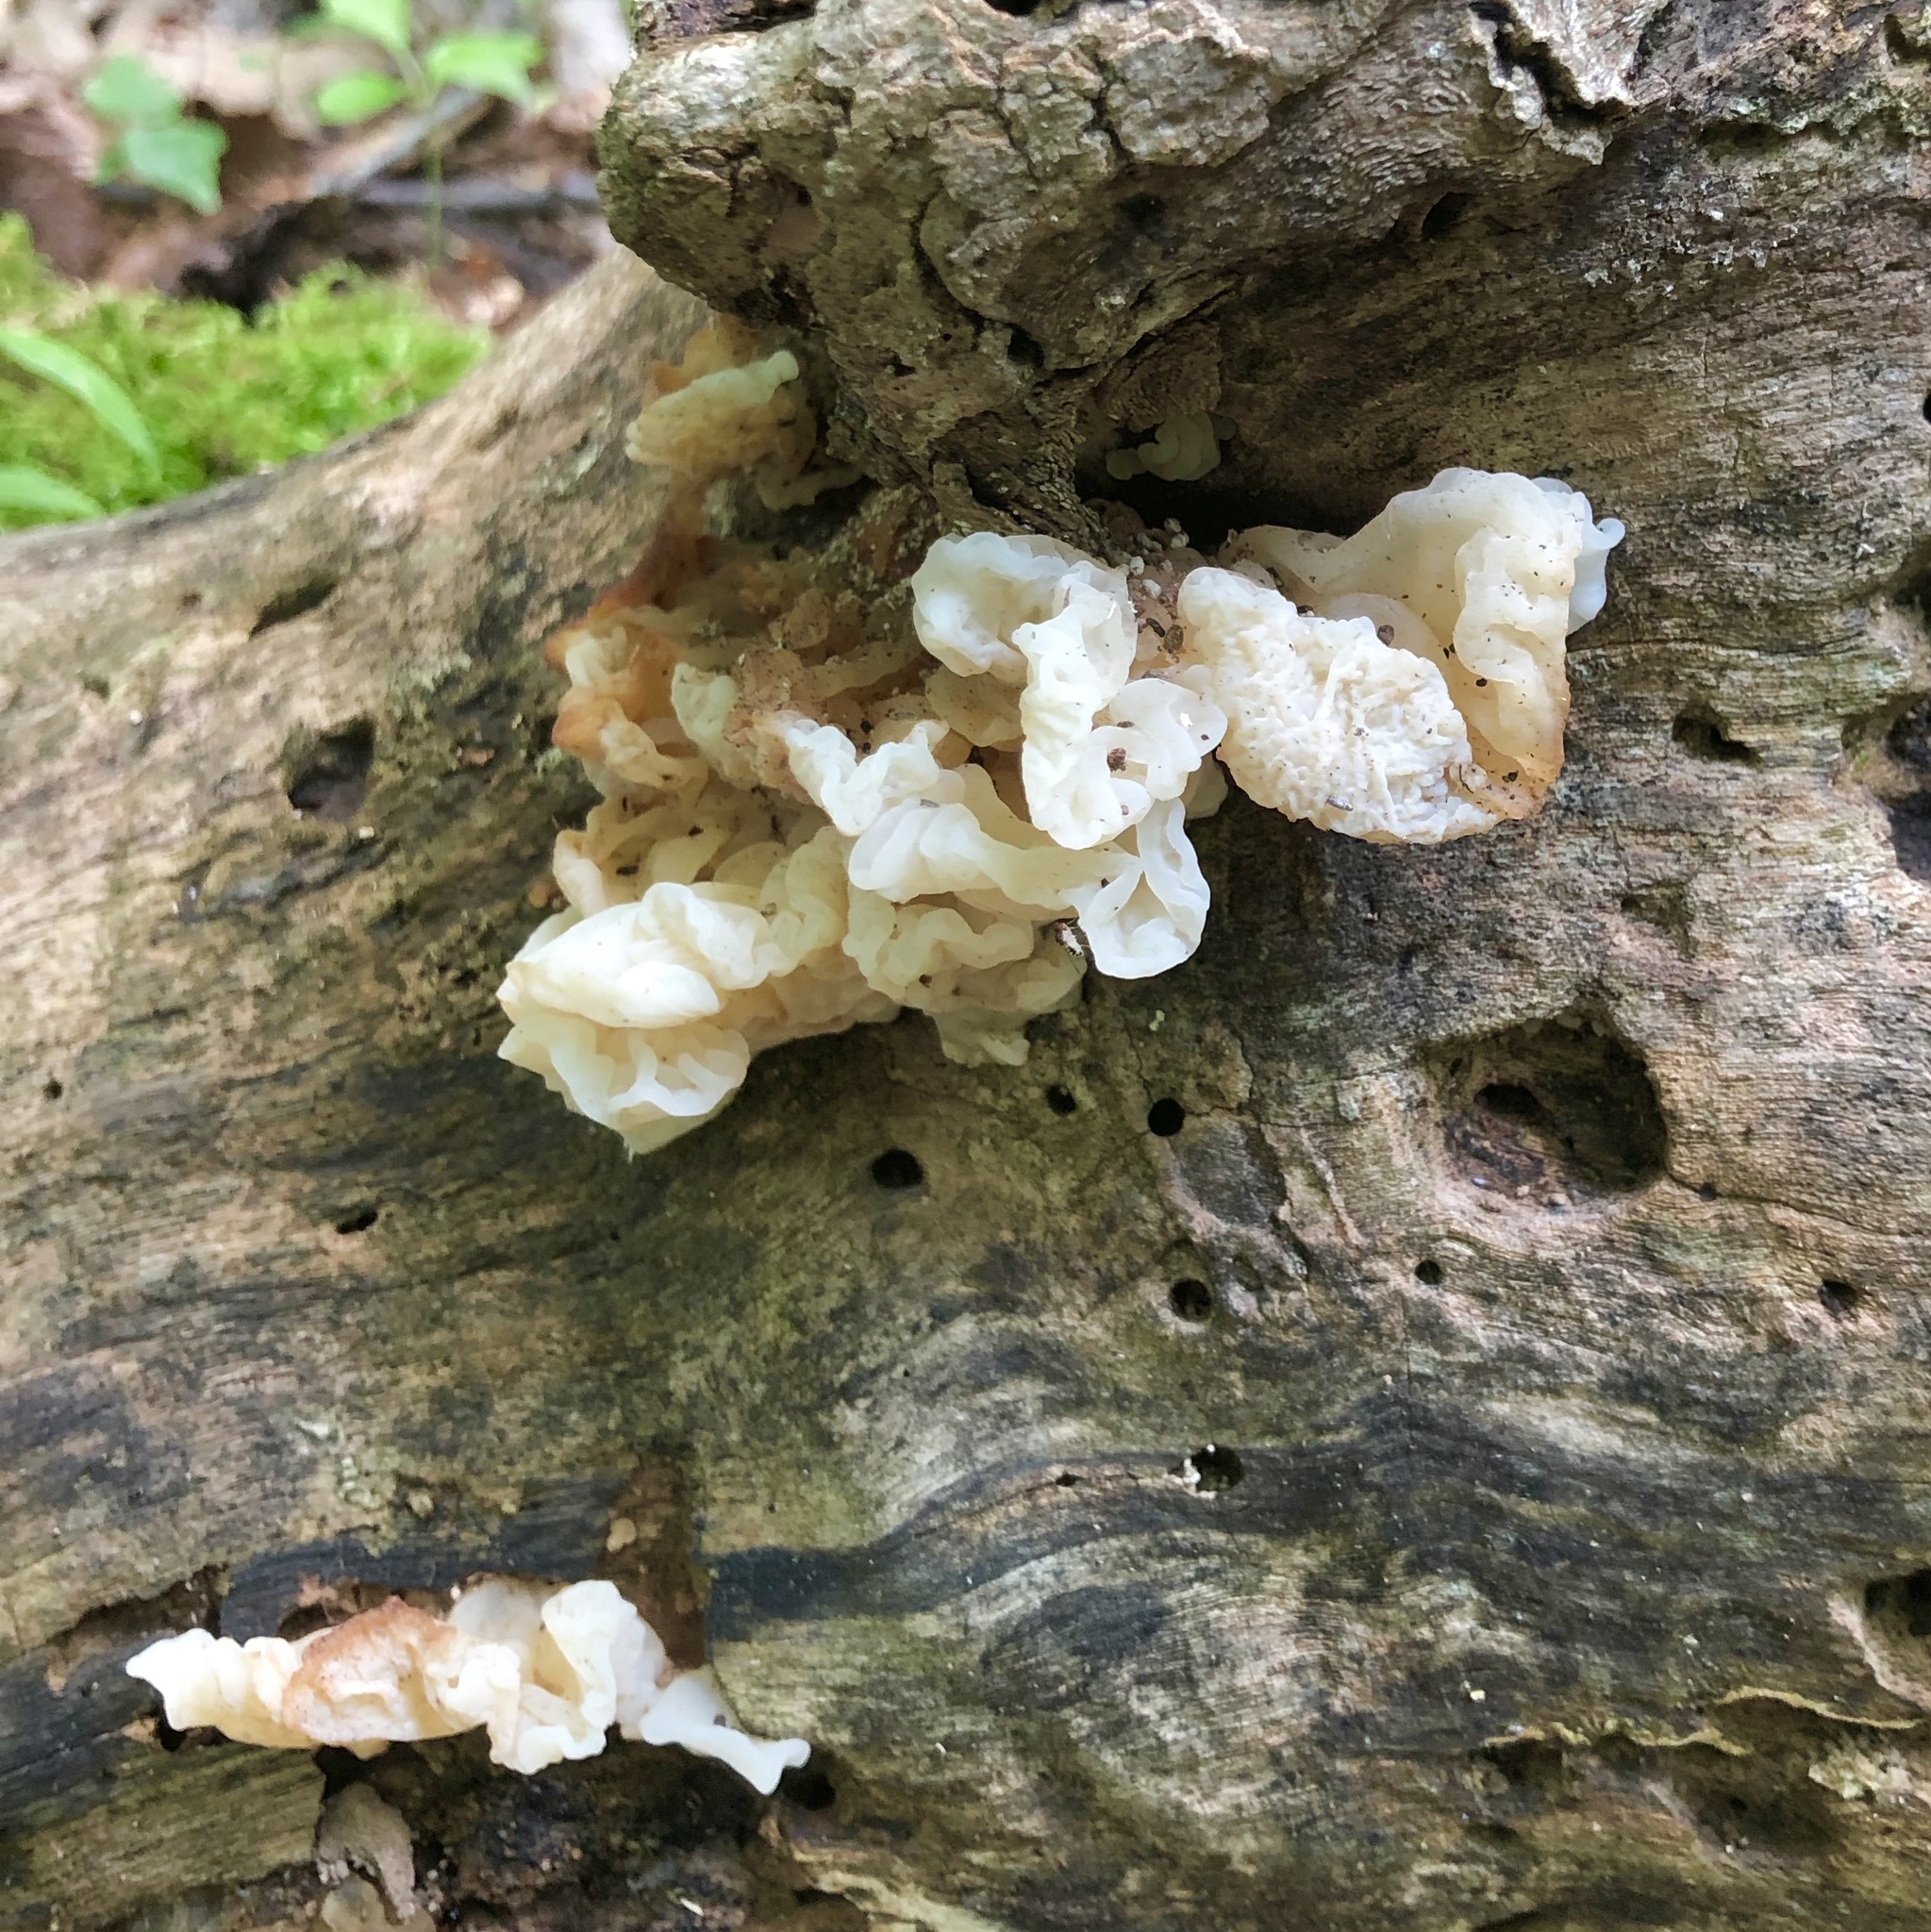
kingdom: Fungi
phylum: Basidiomycota
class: Agaricomycetes
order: Auriculariales
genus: Ductifera
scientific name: Ductifera pululahuana
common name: White jelly fungus
